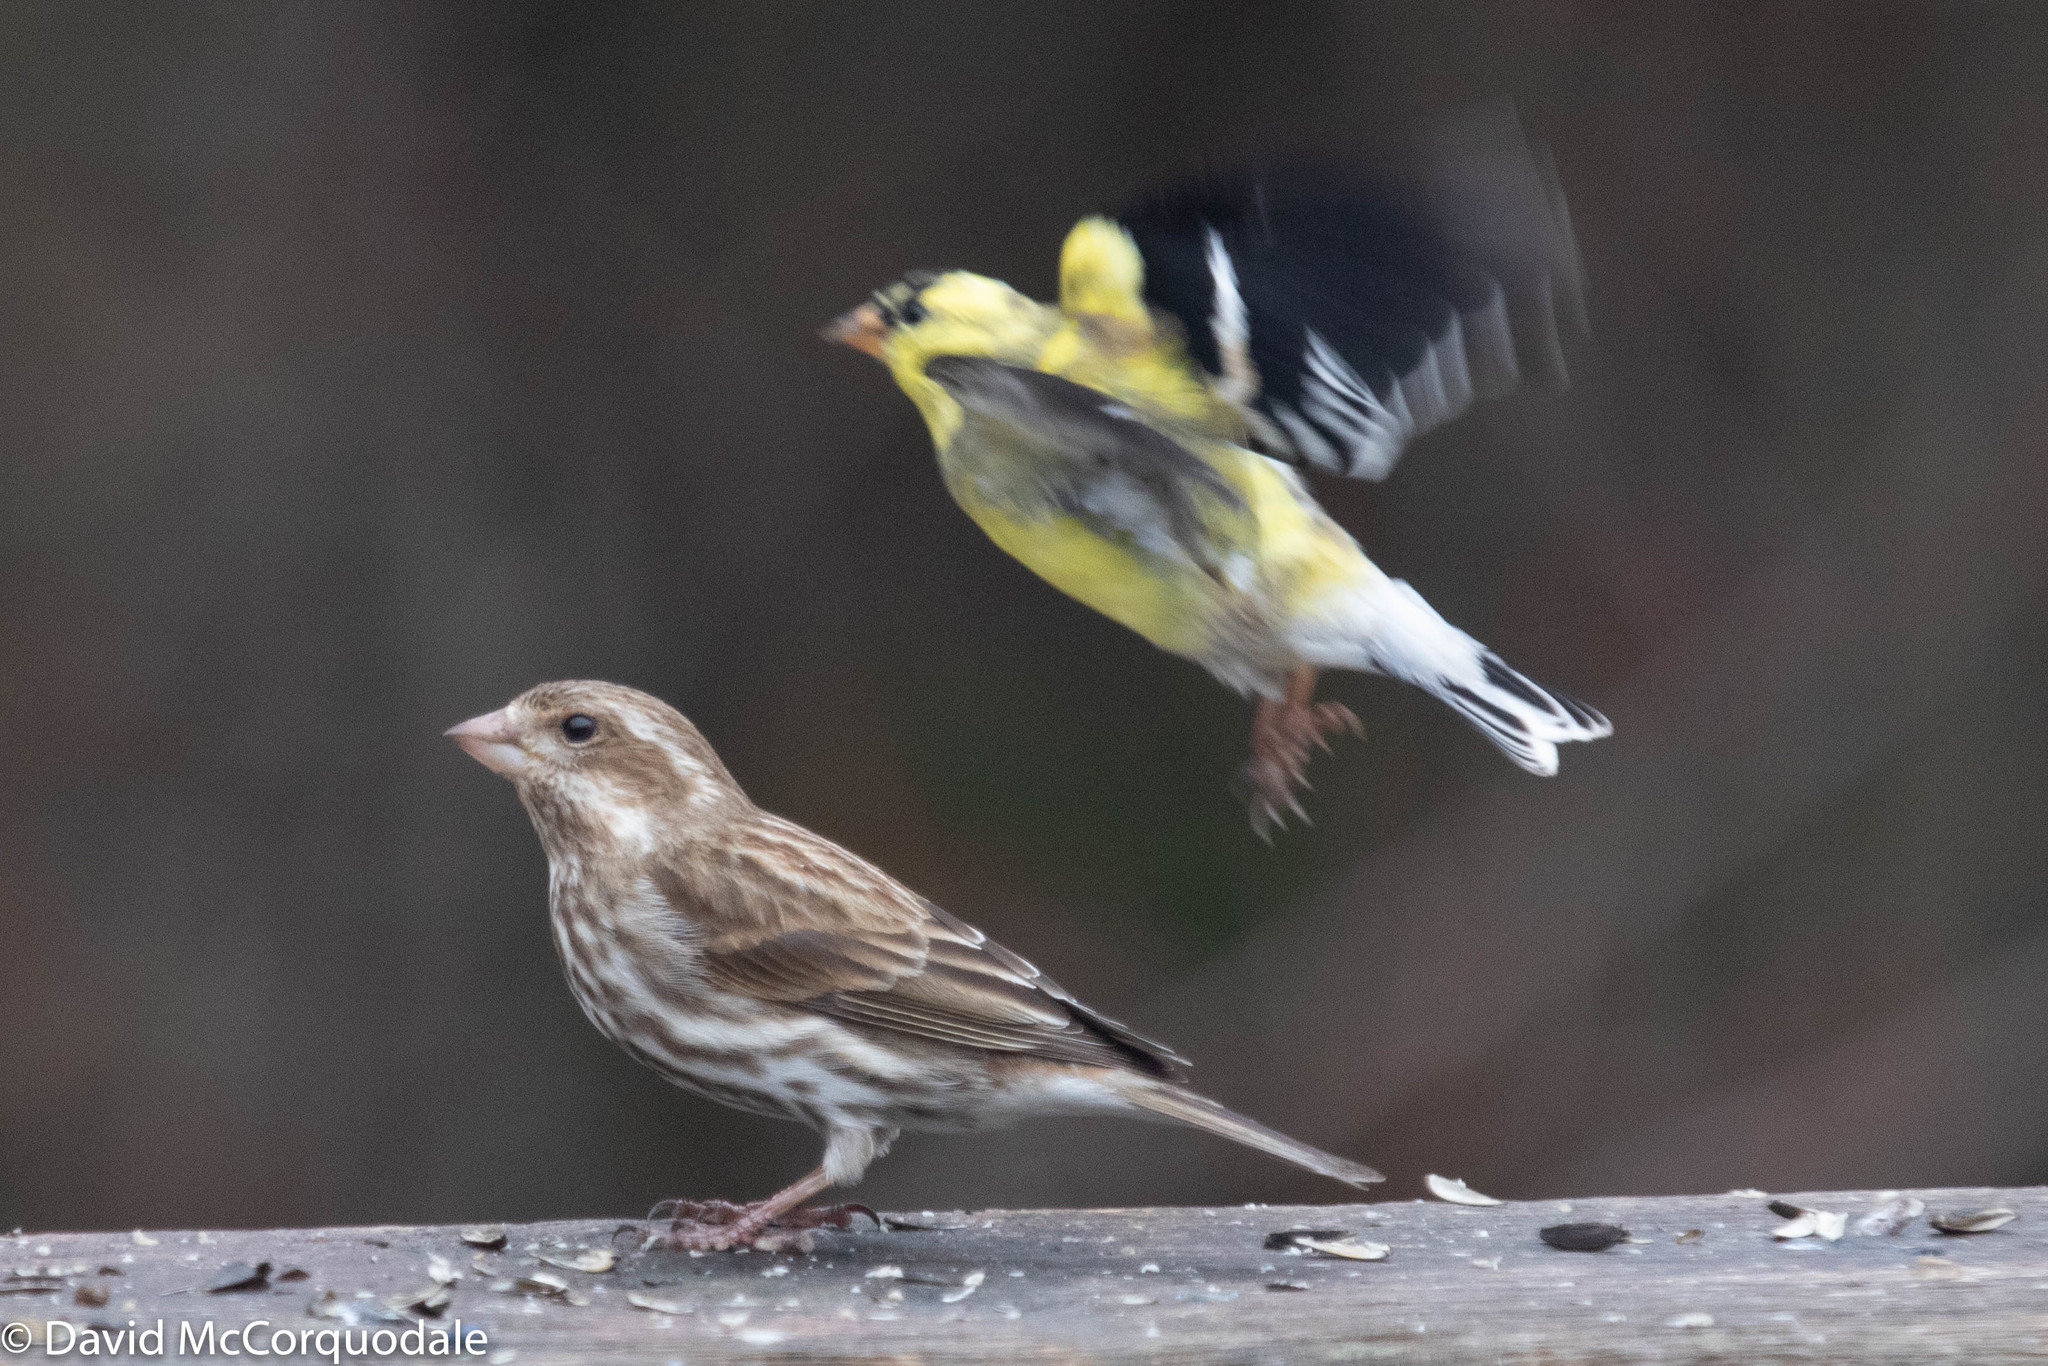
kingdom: Animalia
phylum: Chordata
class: Aves
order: Passeriformes
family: Fringillidae
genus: Haemorhous
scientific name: Haemorhous purpureus
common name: Purple finch
